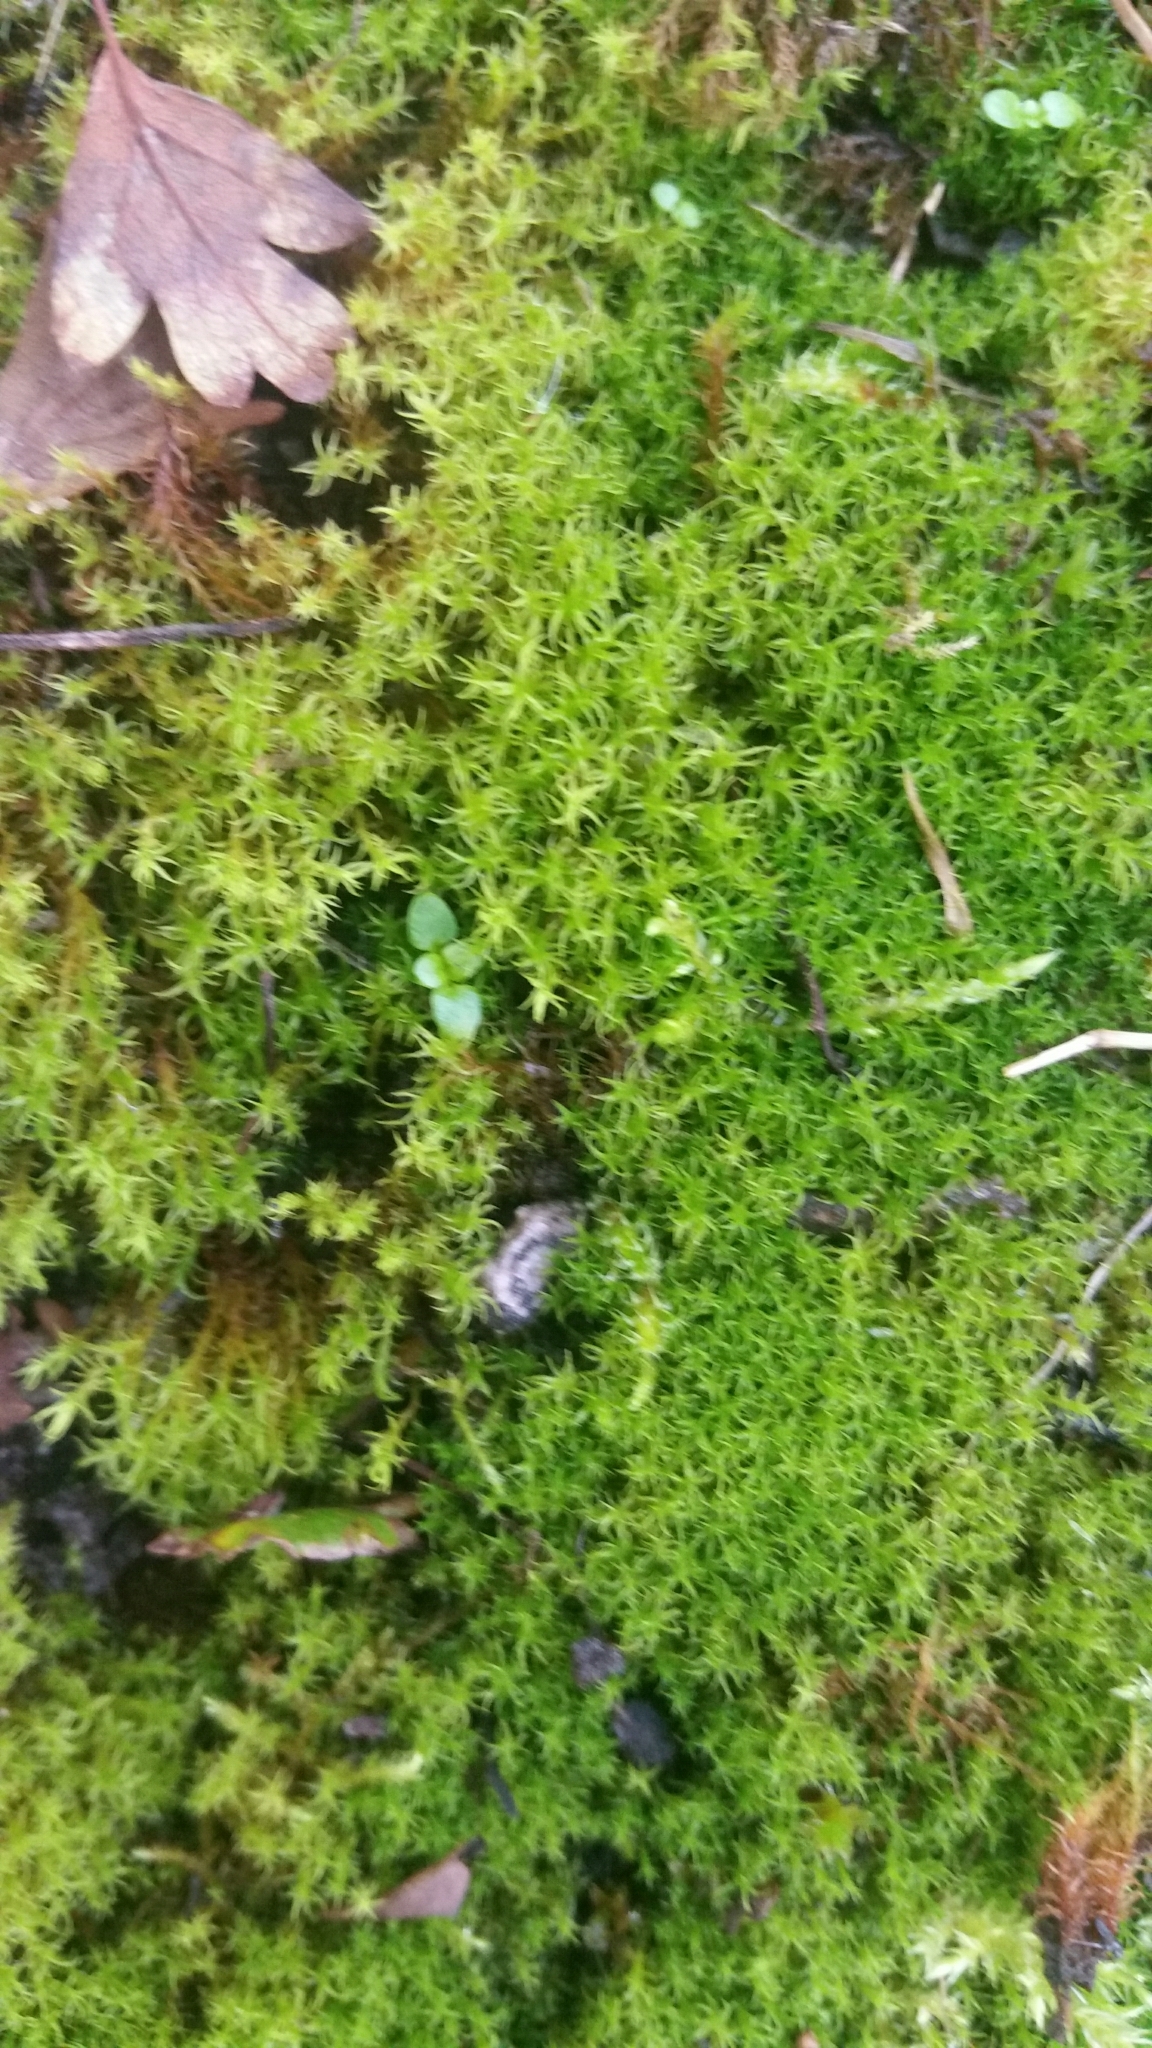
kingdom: Plantae
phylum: Bryophyta
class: Bryopsida
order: Pottiales
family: Pottiaceae
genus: Vinealobryum
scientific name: Vinealobryum insulanum
